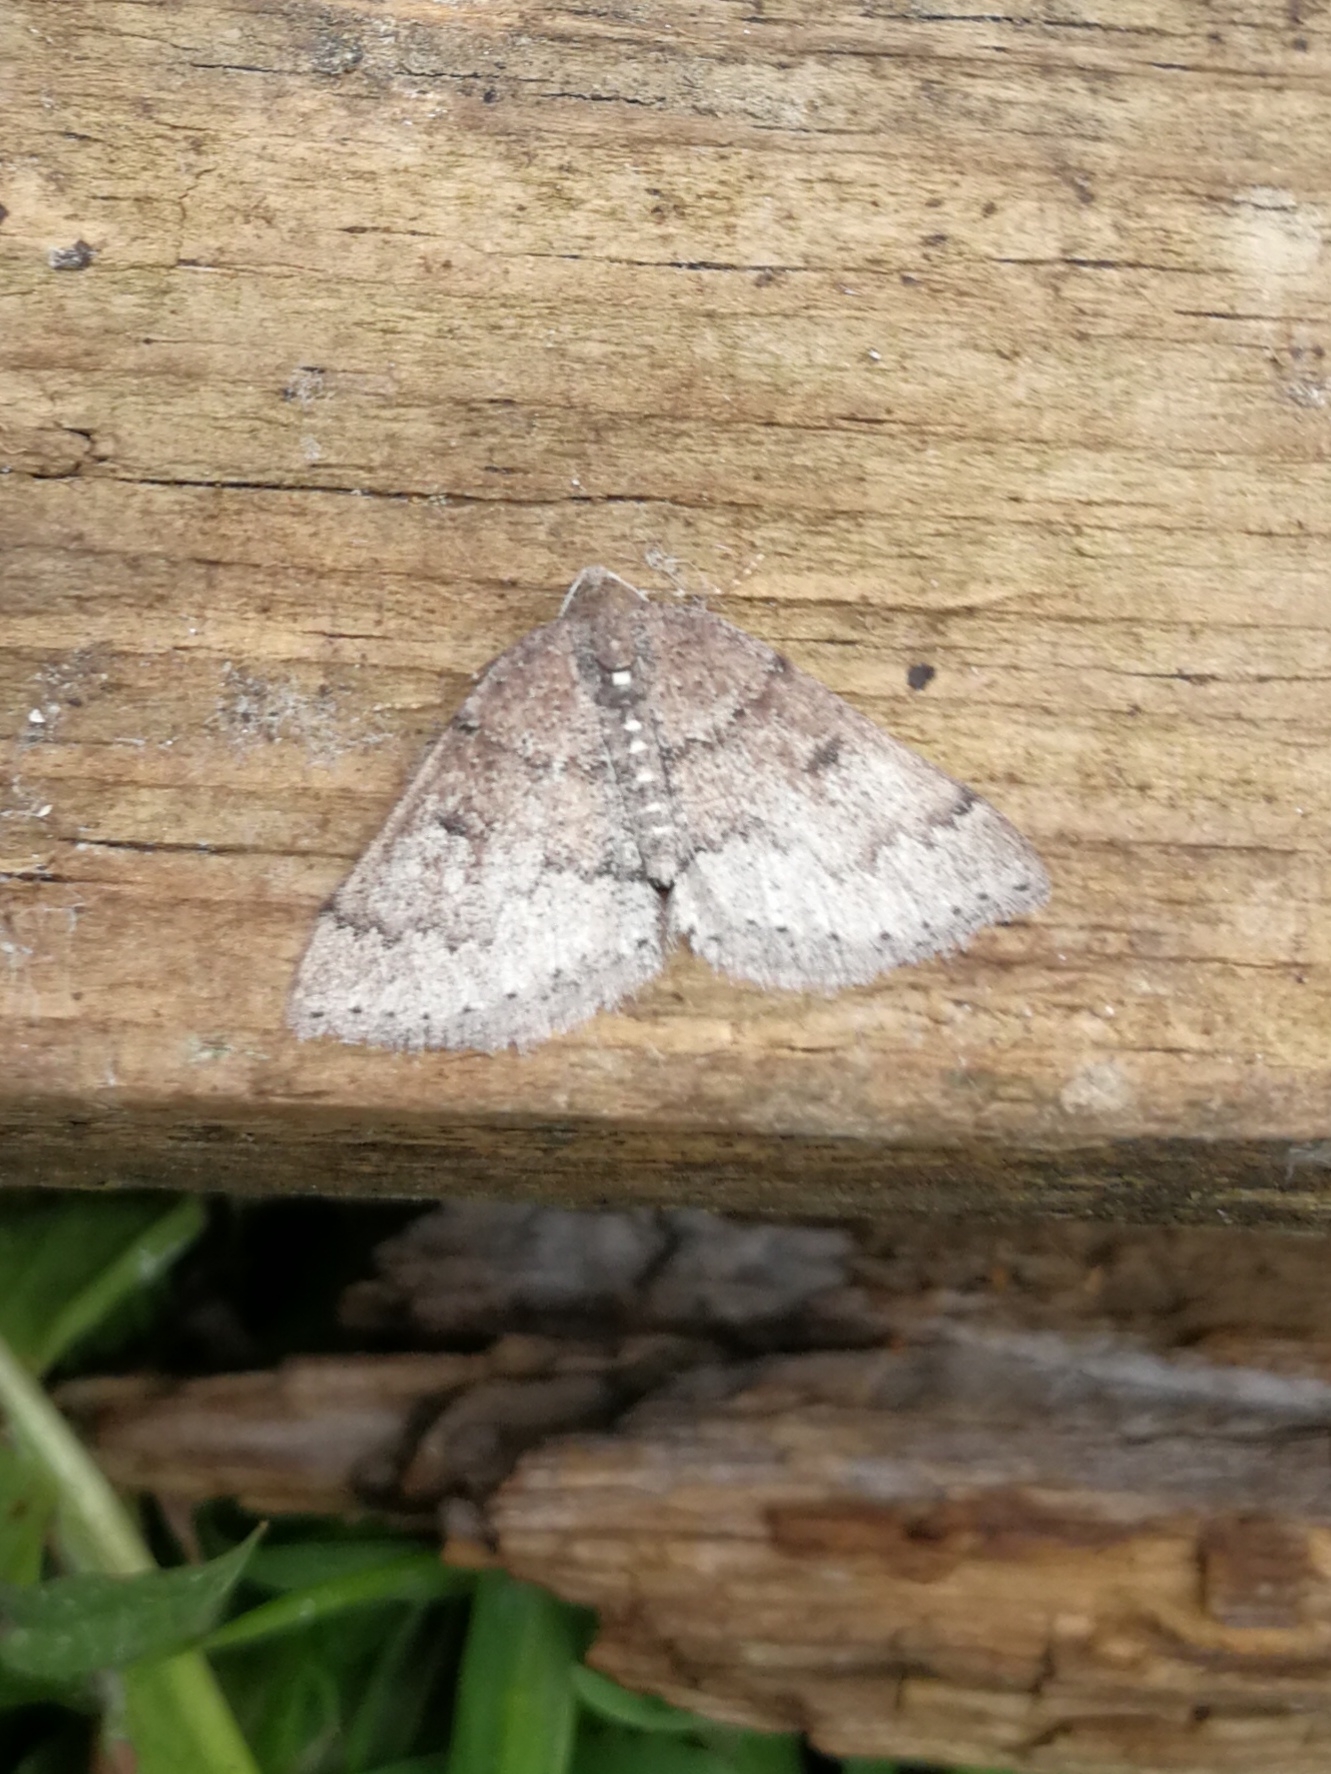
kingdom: Animalia
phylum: Arthropoda
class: Insecta
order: Lepidoptera
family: Geometridae
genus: Aleucis
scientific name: Aleucis distinctata
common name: Sloe carpet
